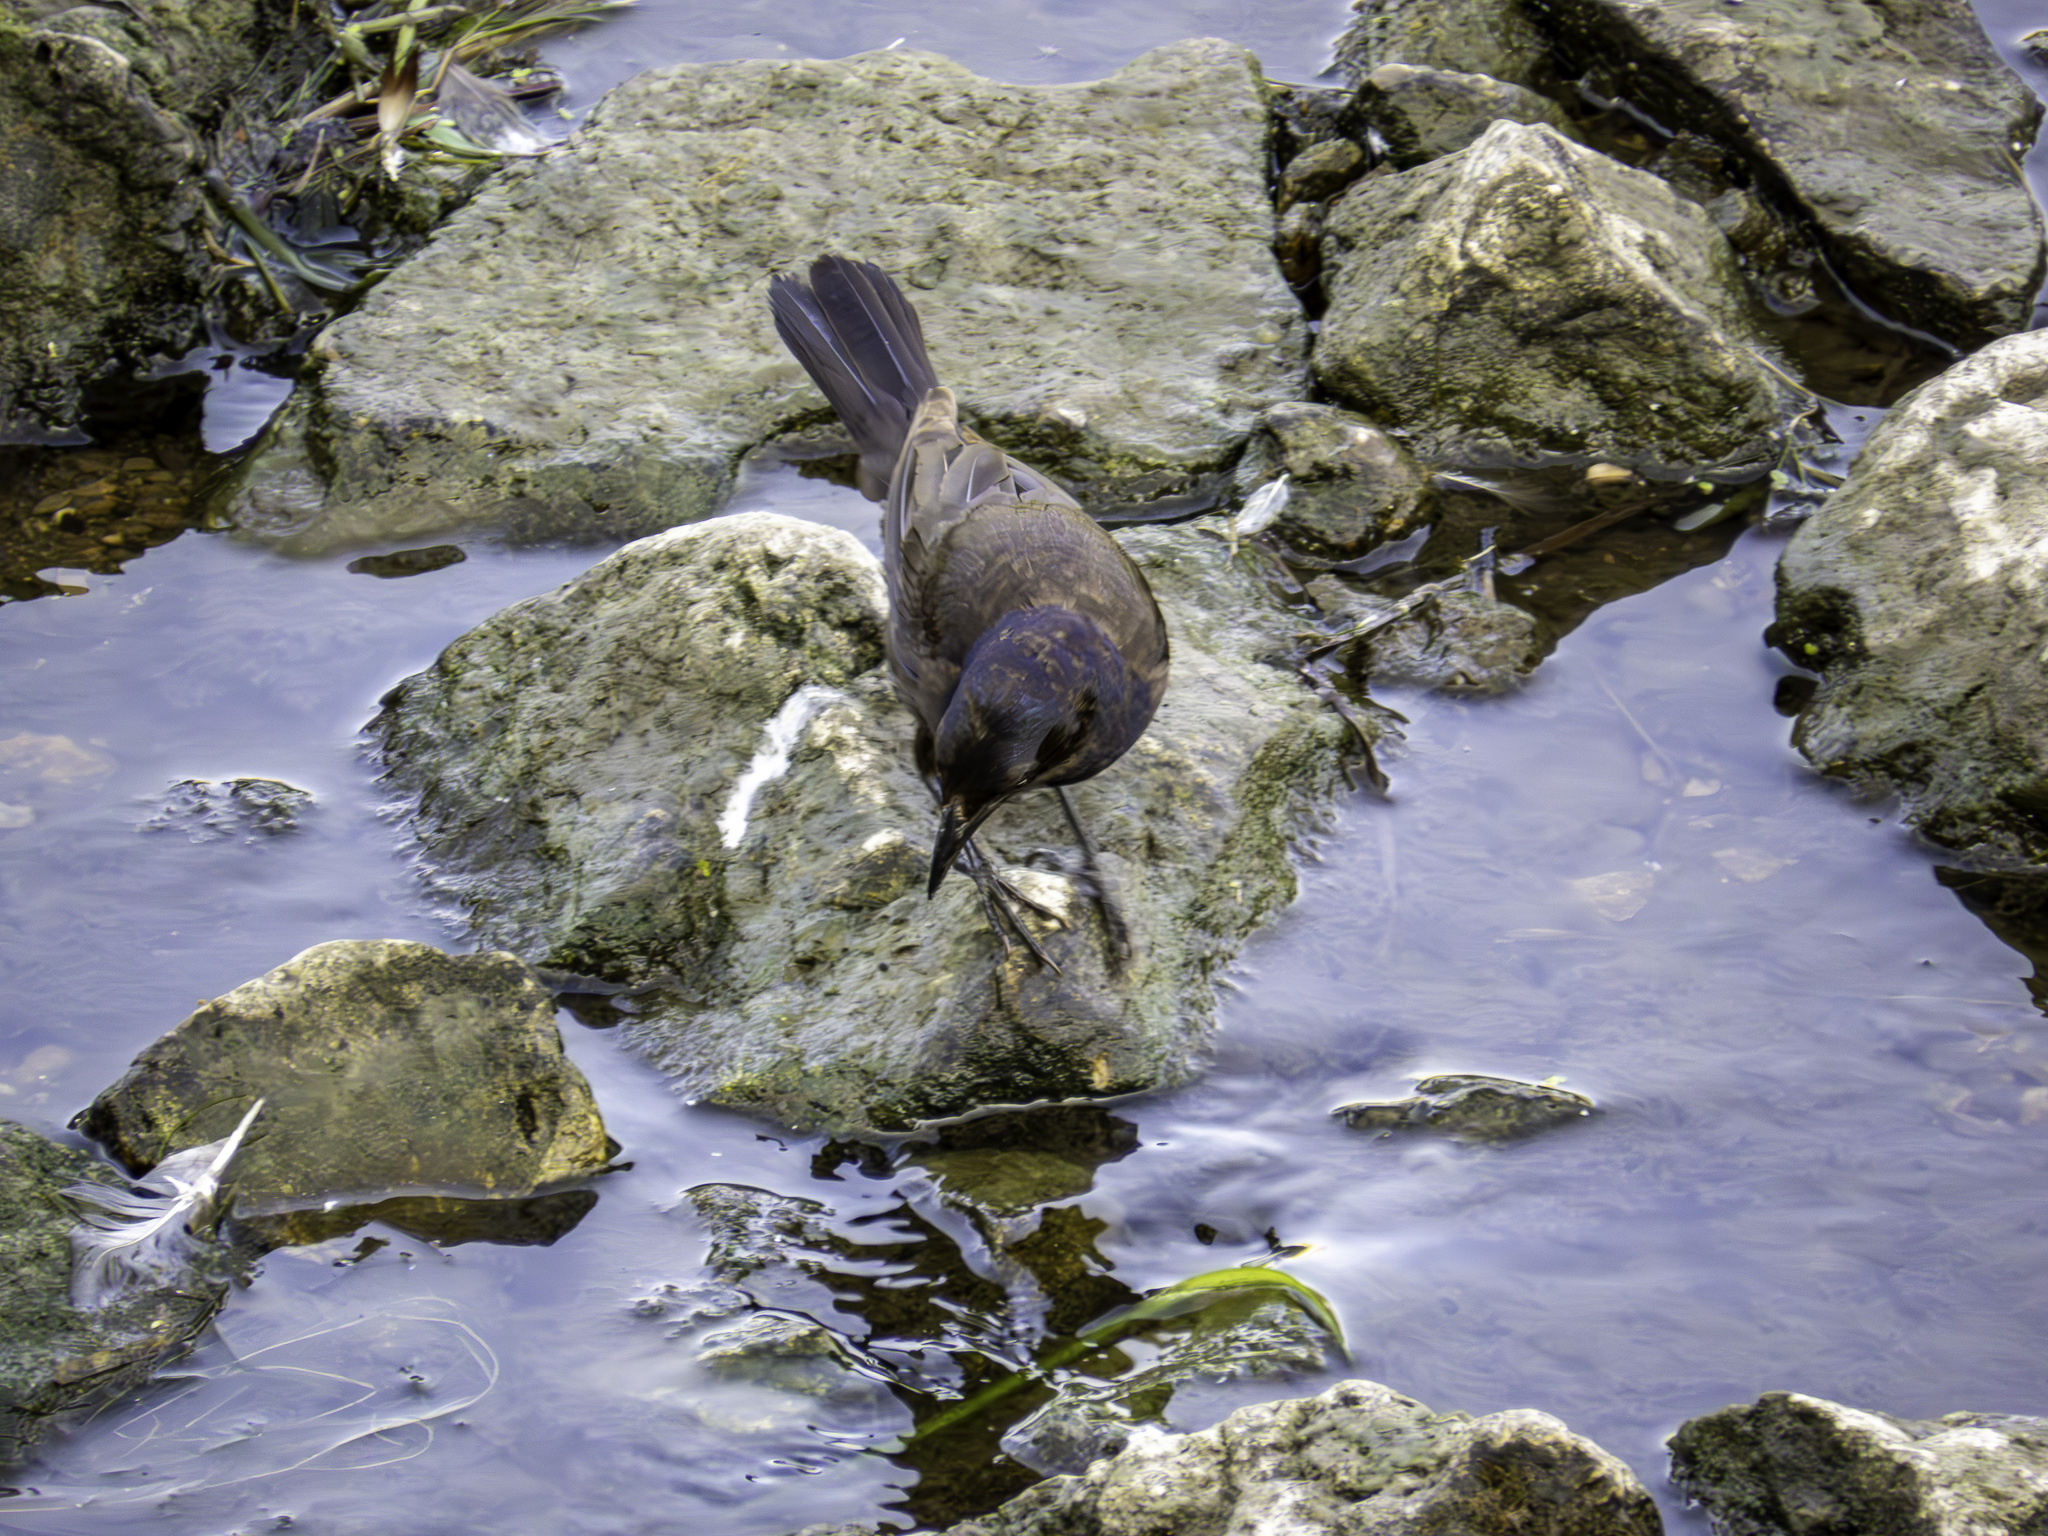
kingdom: Animalia
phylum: Chordata
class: Aves
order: Passeriformes
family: Icteridae
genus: Quiscalus
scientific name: Quiscalus quiscula
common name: Common grackle
